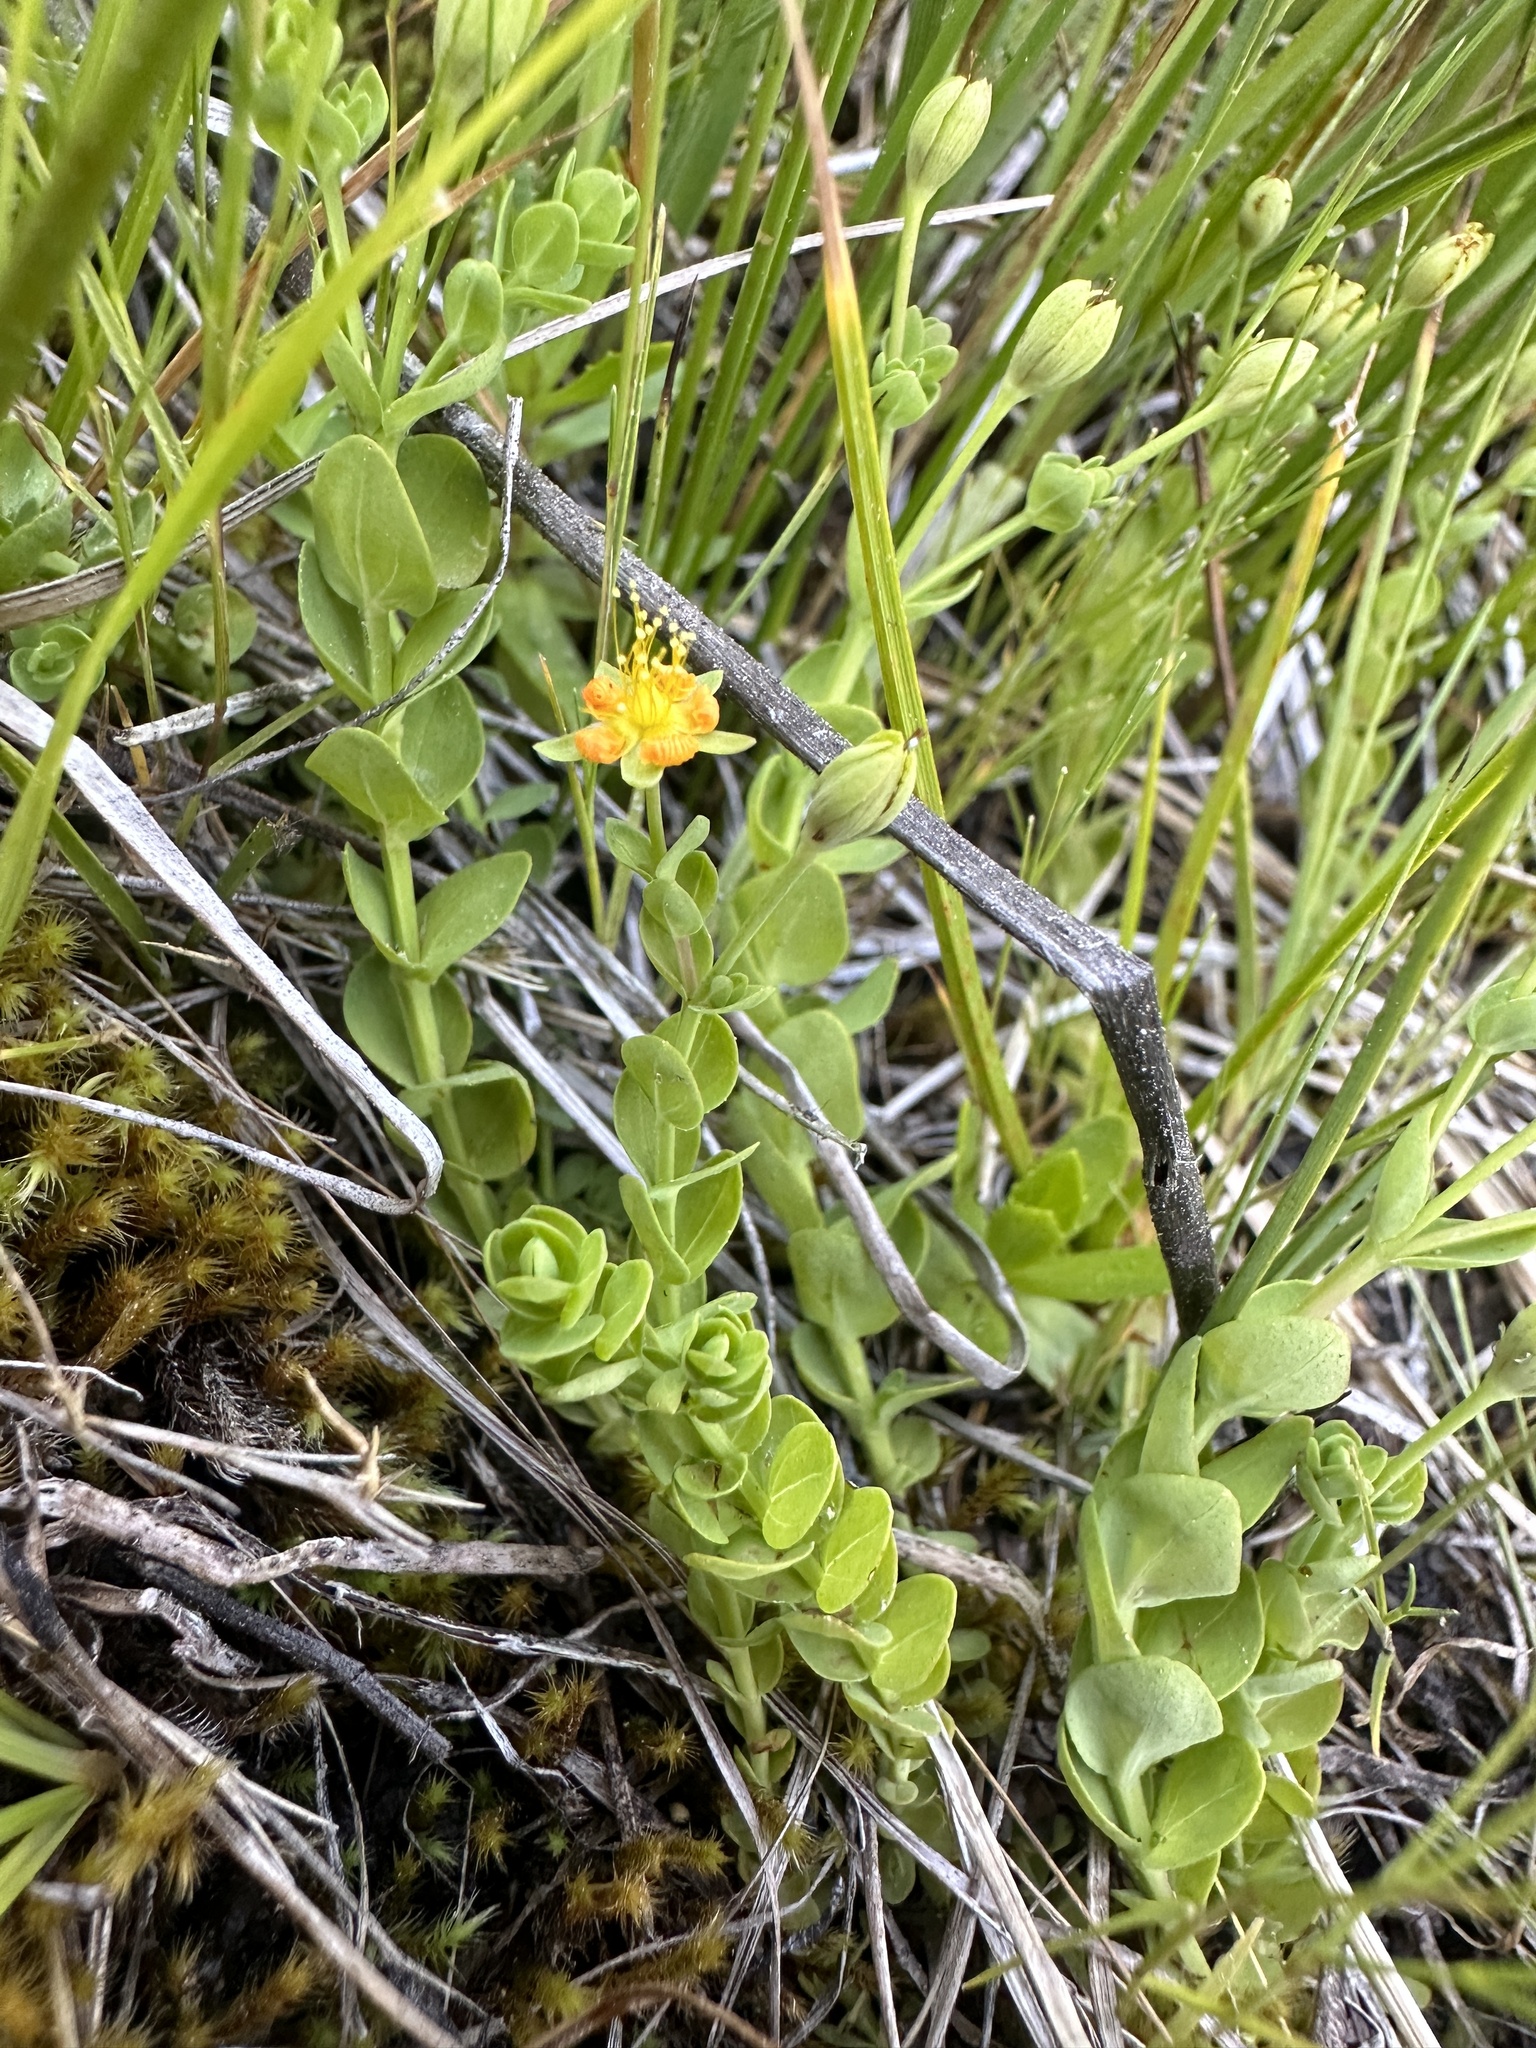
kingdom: Plantae
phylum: Tracheophyta
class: Magnoliopsida
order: Malpighiales
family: Hypericaceae
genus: Hypericum
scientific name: Hypericum anagalloides
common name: Bog st. john's-wort
